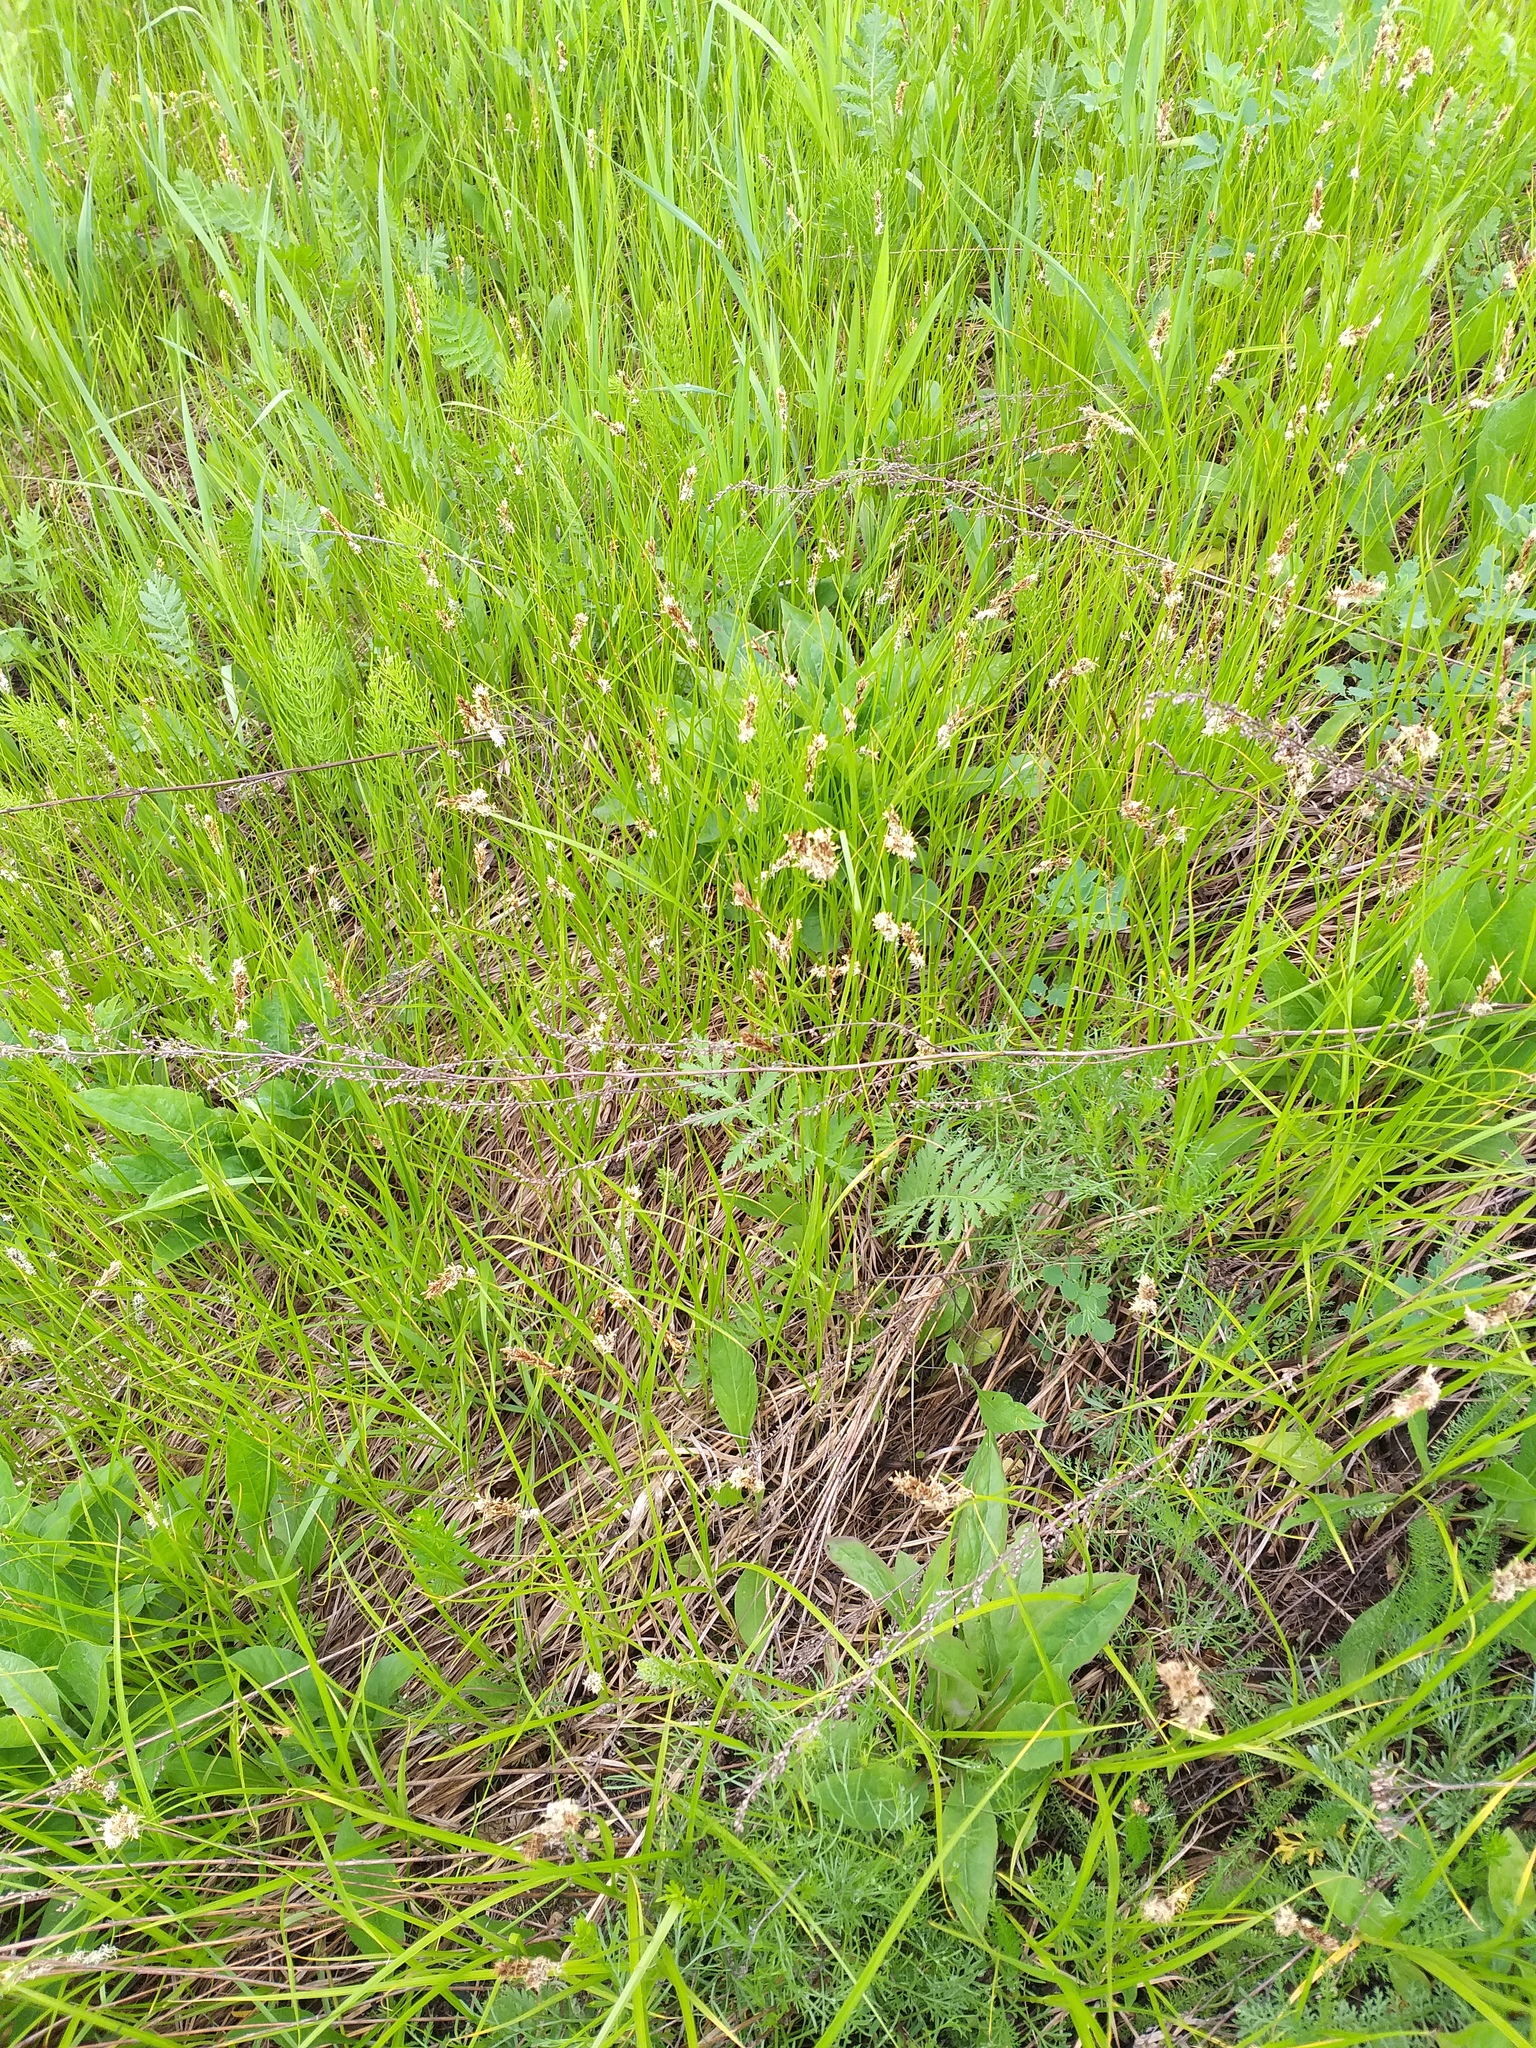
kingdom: Plantae
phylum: Tracheophyta
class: Liliopsida
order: Poales
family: Cyperaceae
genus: Carex
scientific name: Carex disticha
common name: Brown sedge
